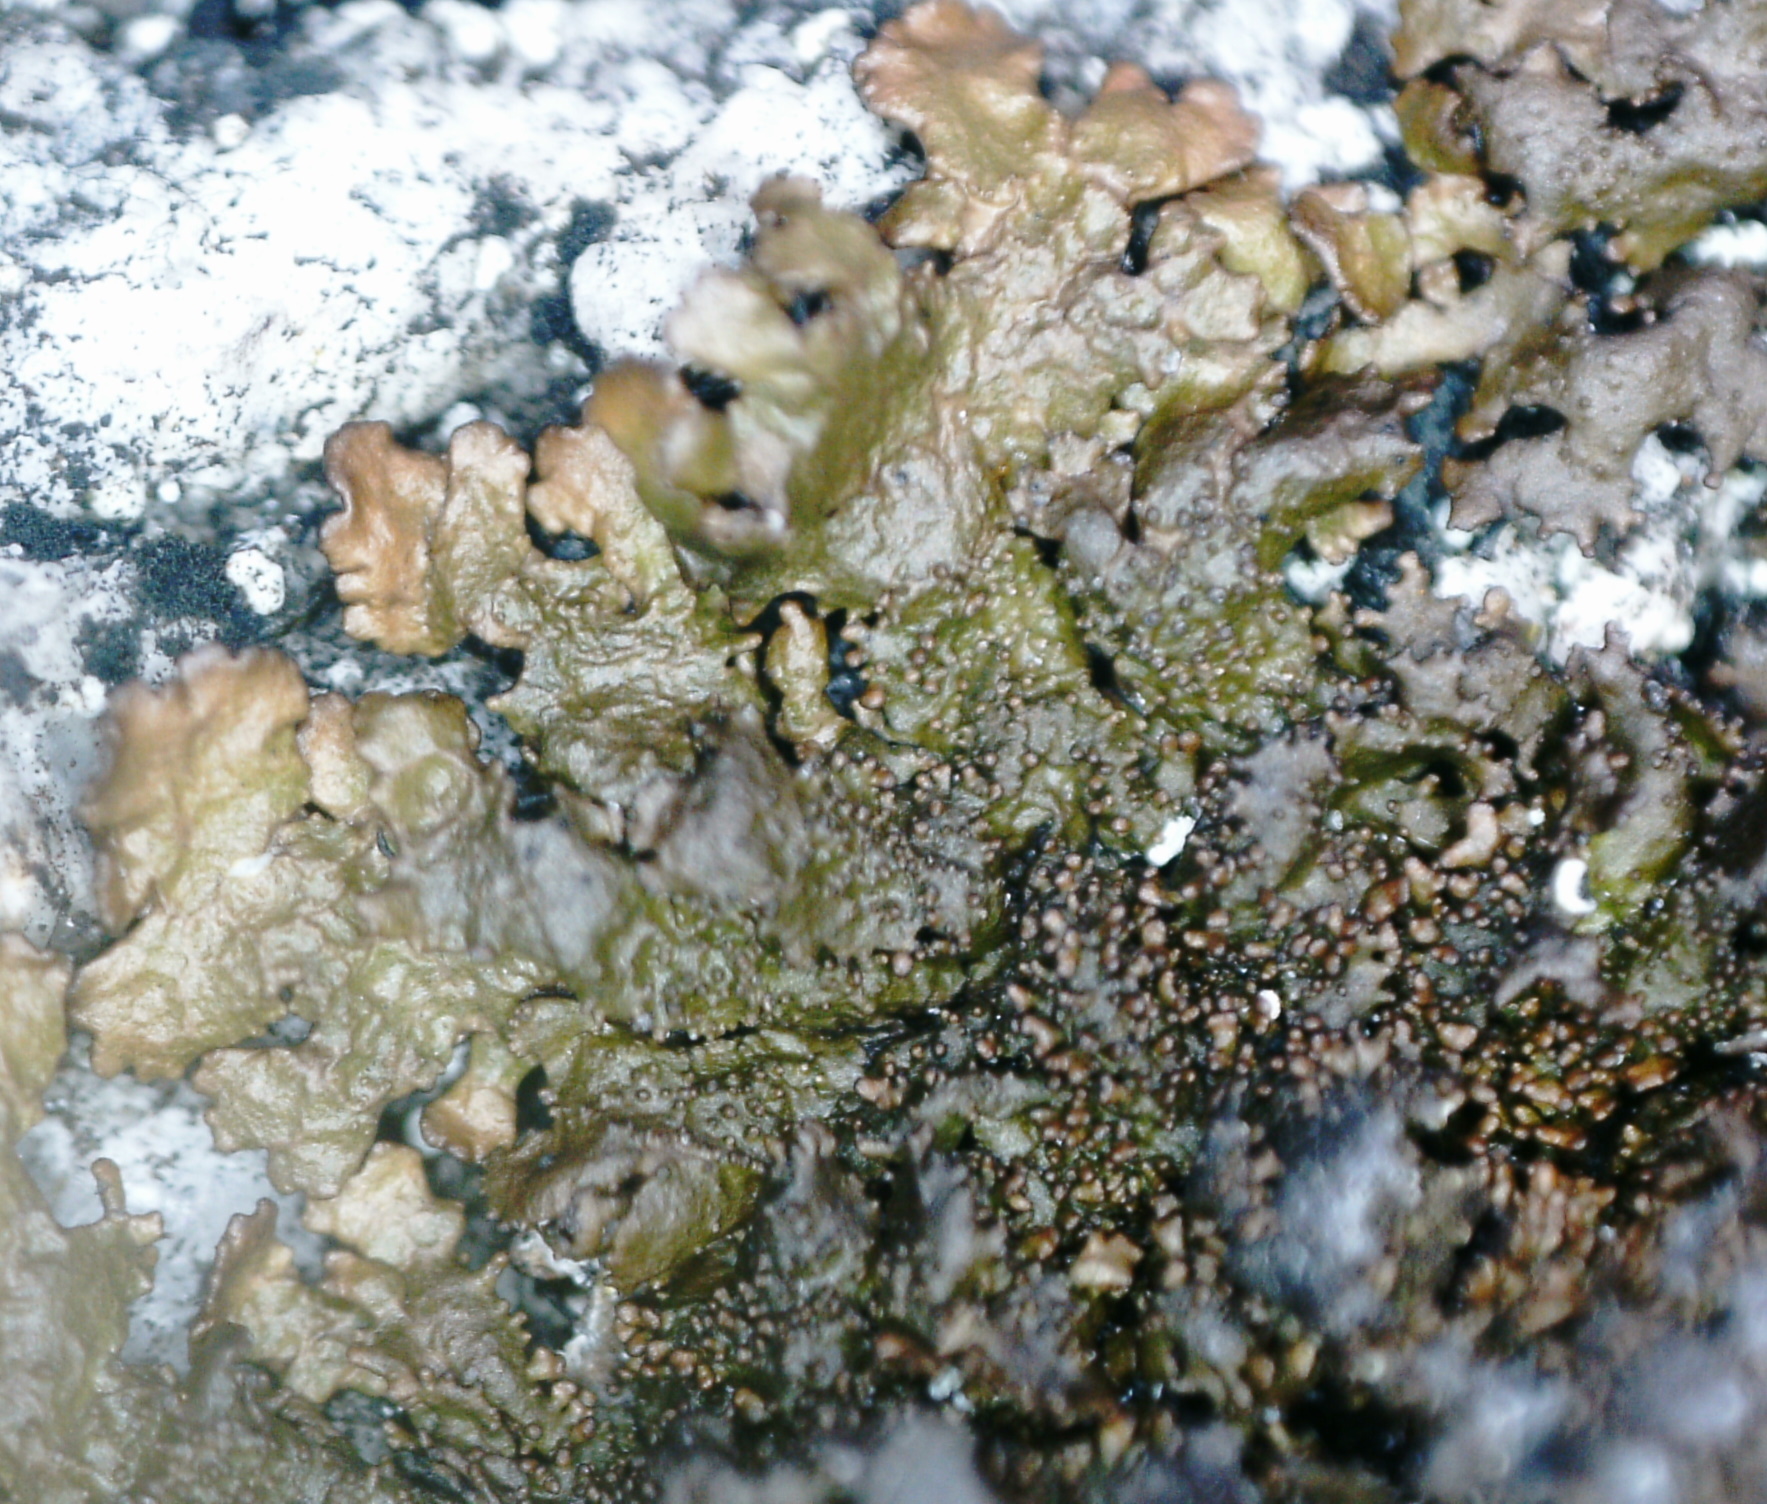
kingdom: Fungi
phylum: Ascomycota
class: Lecanoromycetes
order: Lecanorales
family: Parmeliaceae
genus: Montanelia
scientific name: Montanelia panniformis
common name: Shingled camouflage lichen
